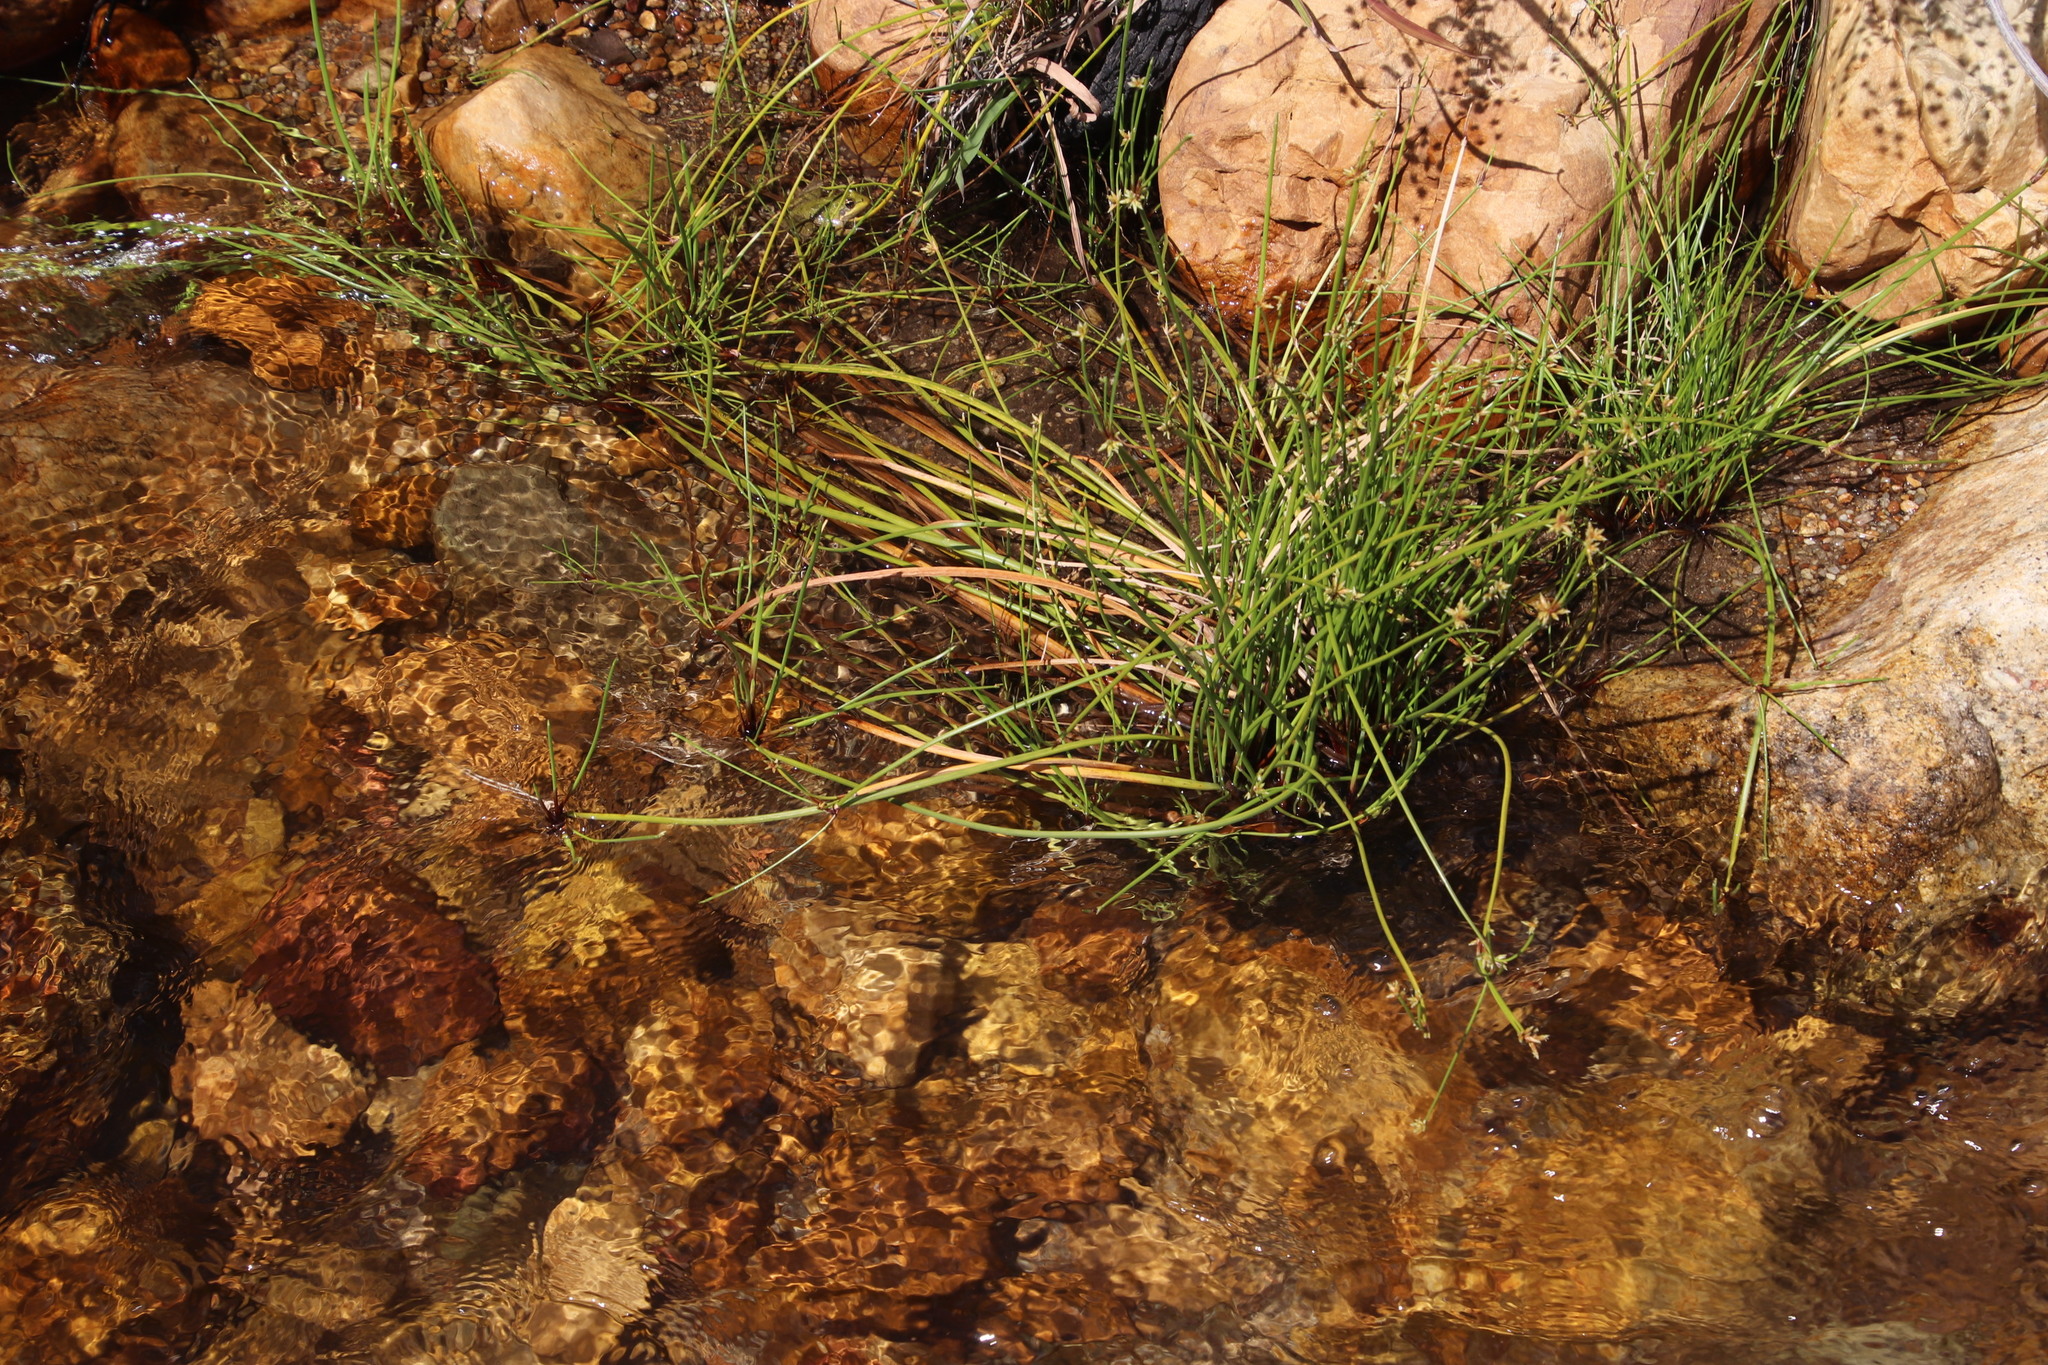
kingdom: Plantae
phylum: Tracheophyta
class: Liliopsida
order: Poales
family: Cyperaceae
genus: Isolepis
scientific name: Isolepis prolifera
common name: Proliferating bulrush
